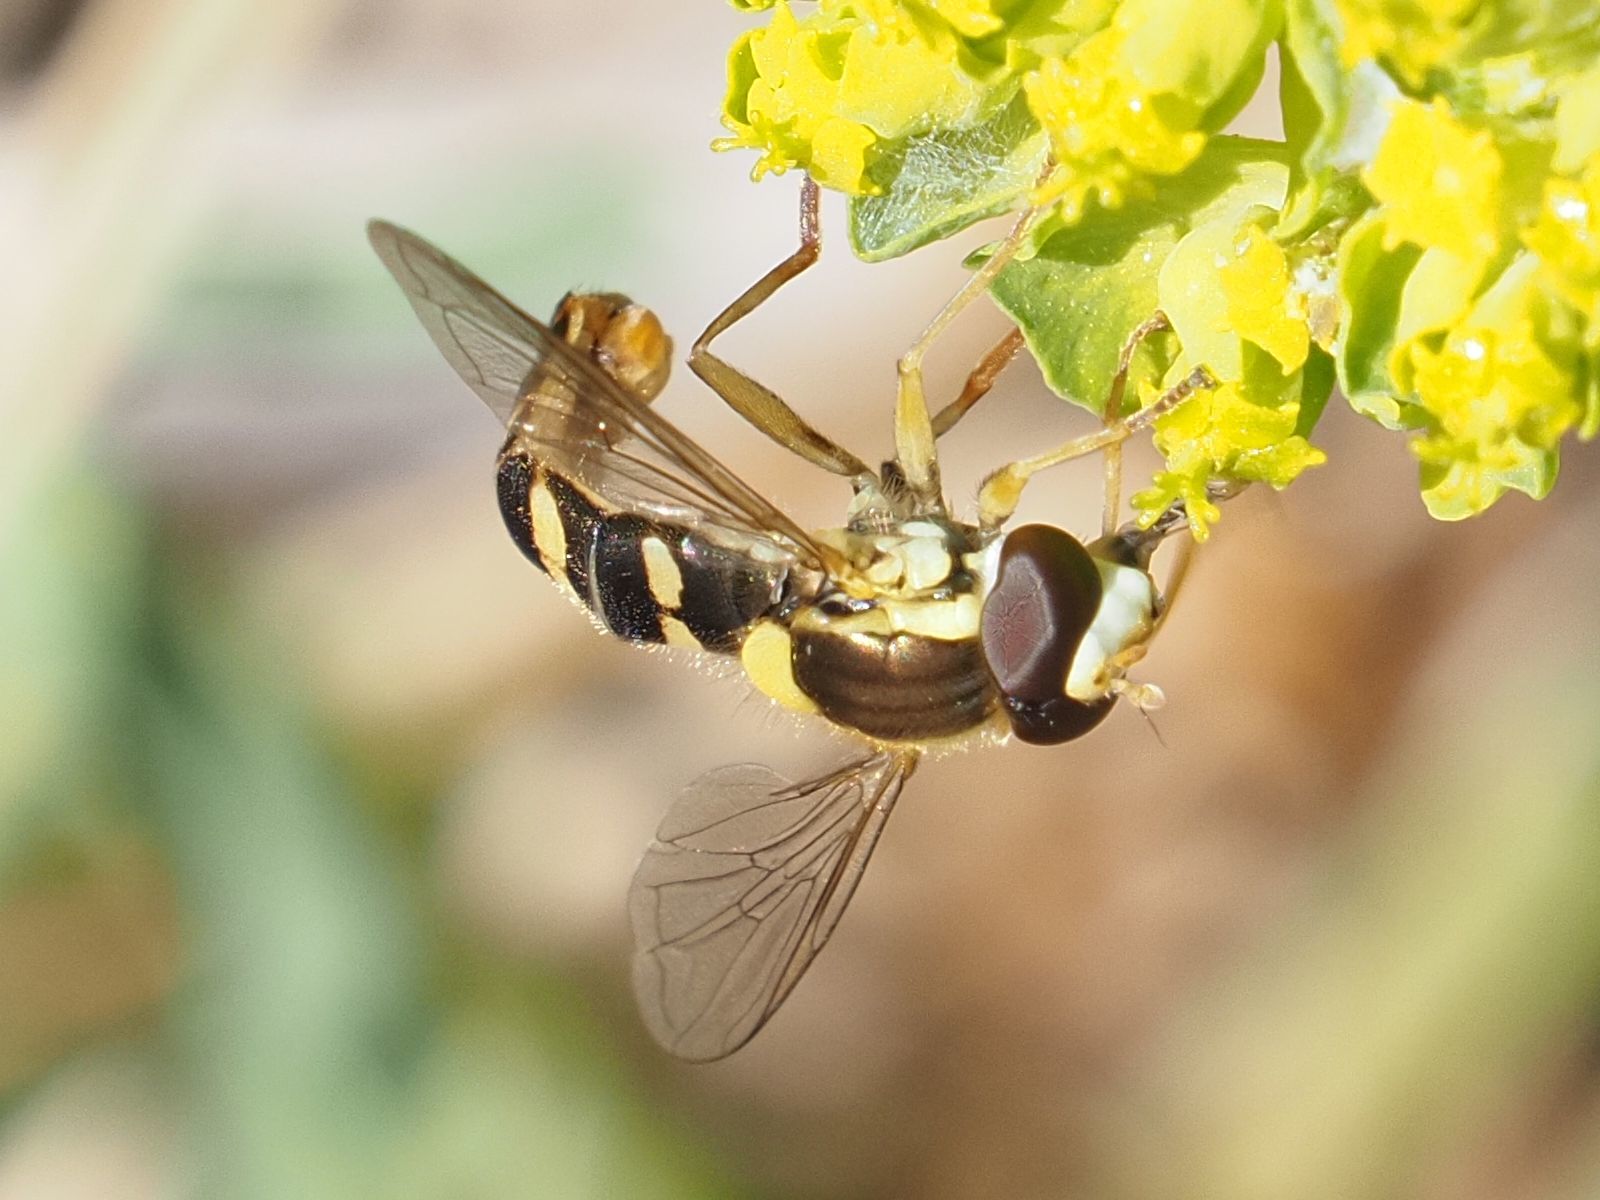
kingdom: Animalia
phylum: Arthropoda
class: Insecta
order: Diptera
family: Syrphidae
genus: Sphaerophoria
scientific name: Sphaerophoria
